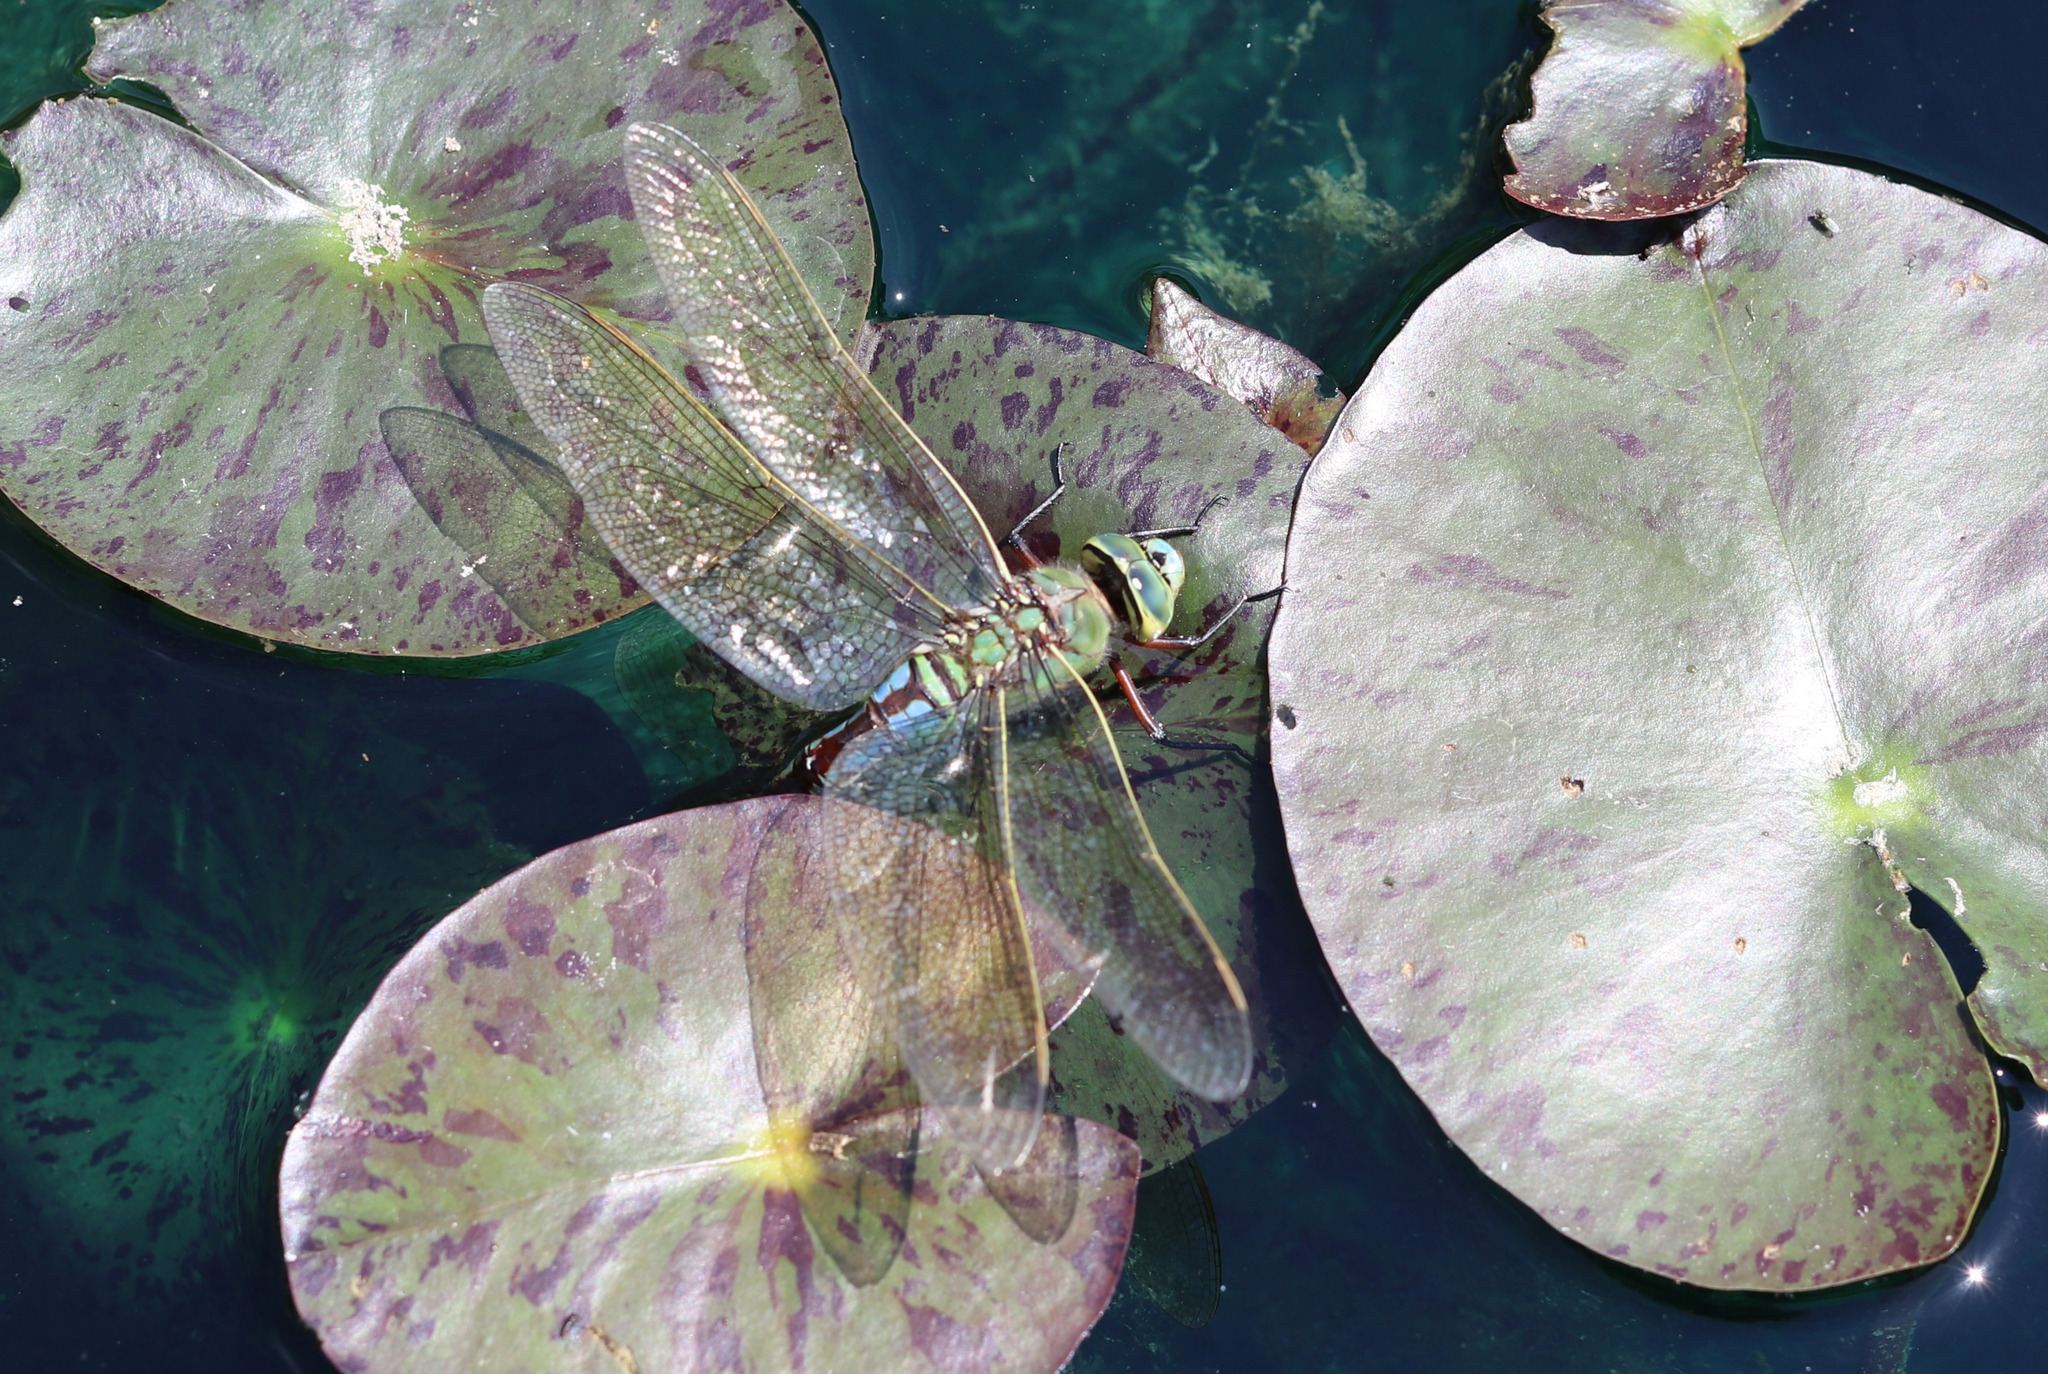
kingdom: Animalia
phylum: Arthropoda
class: Insecta
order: Odonata
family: Aeshnidae
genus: Anax
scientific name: Anax imperator
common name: Emperor dragonfly
